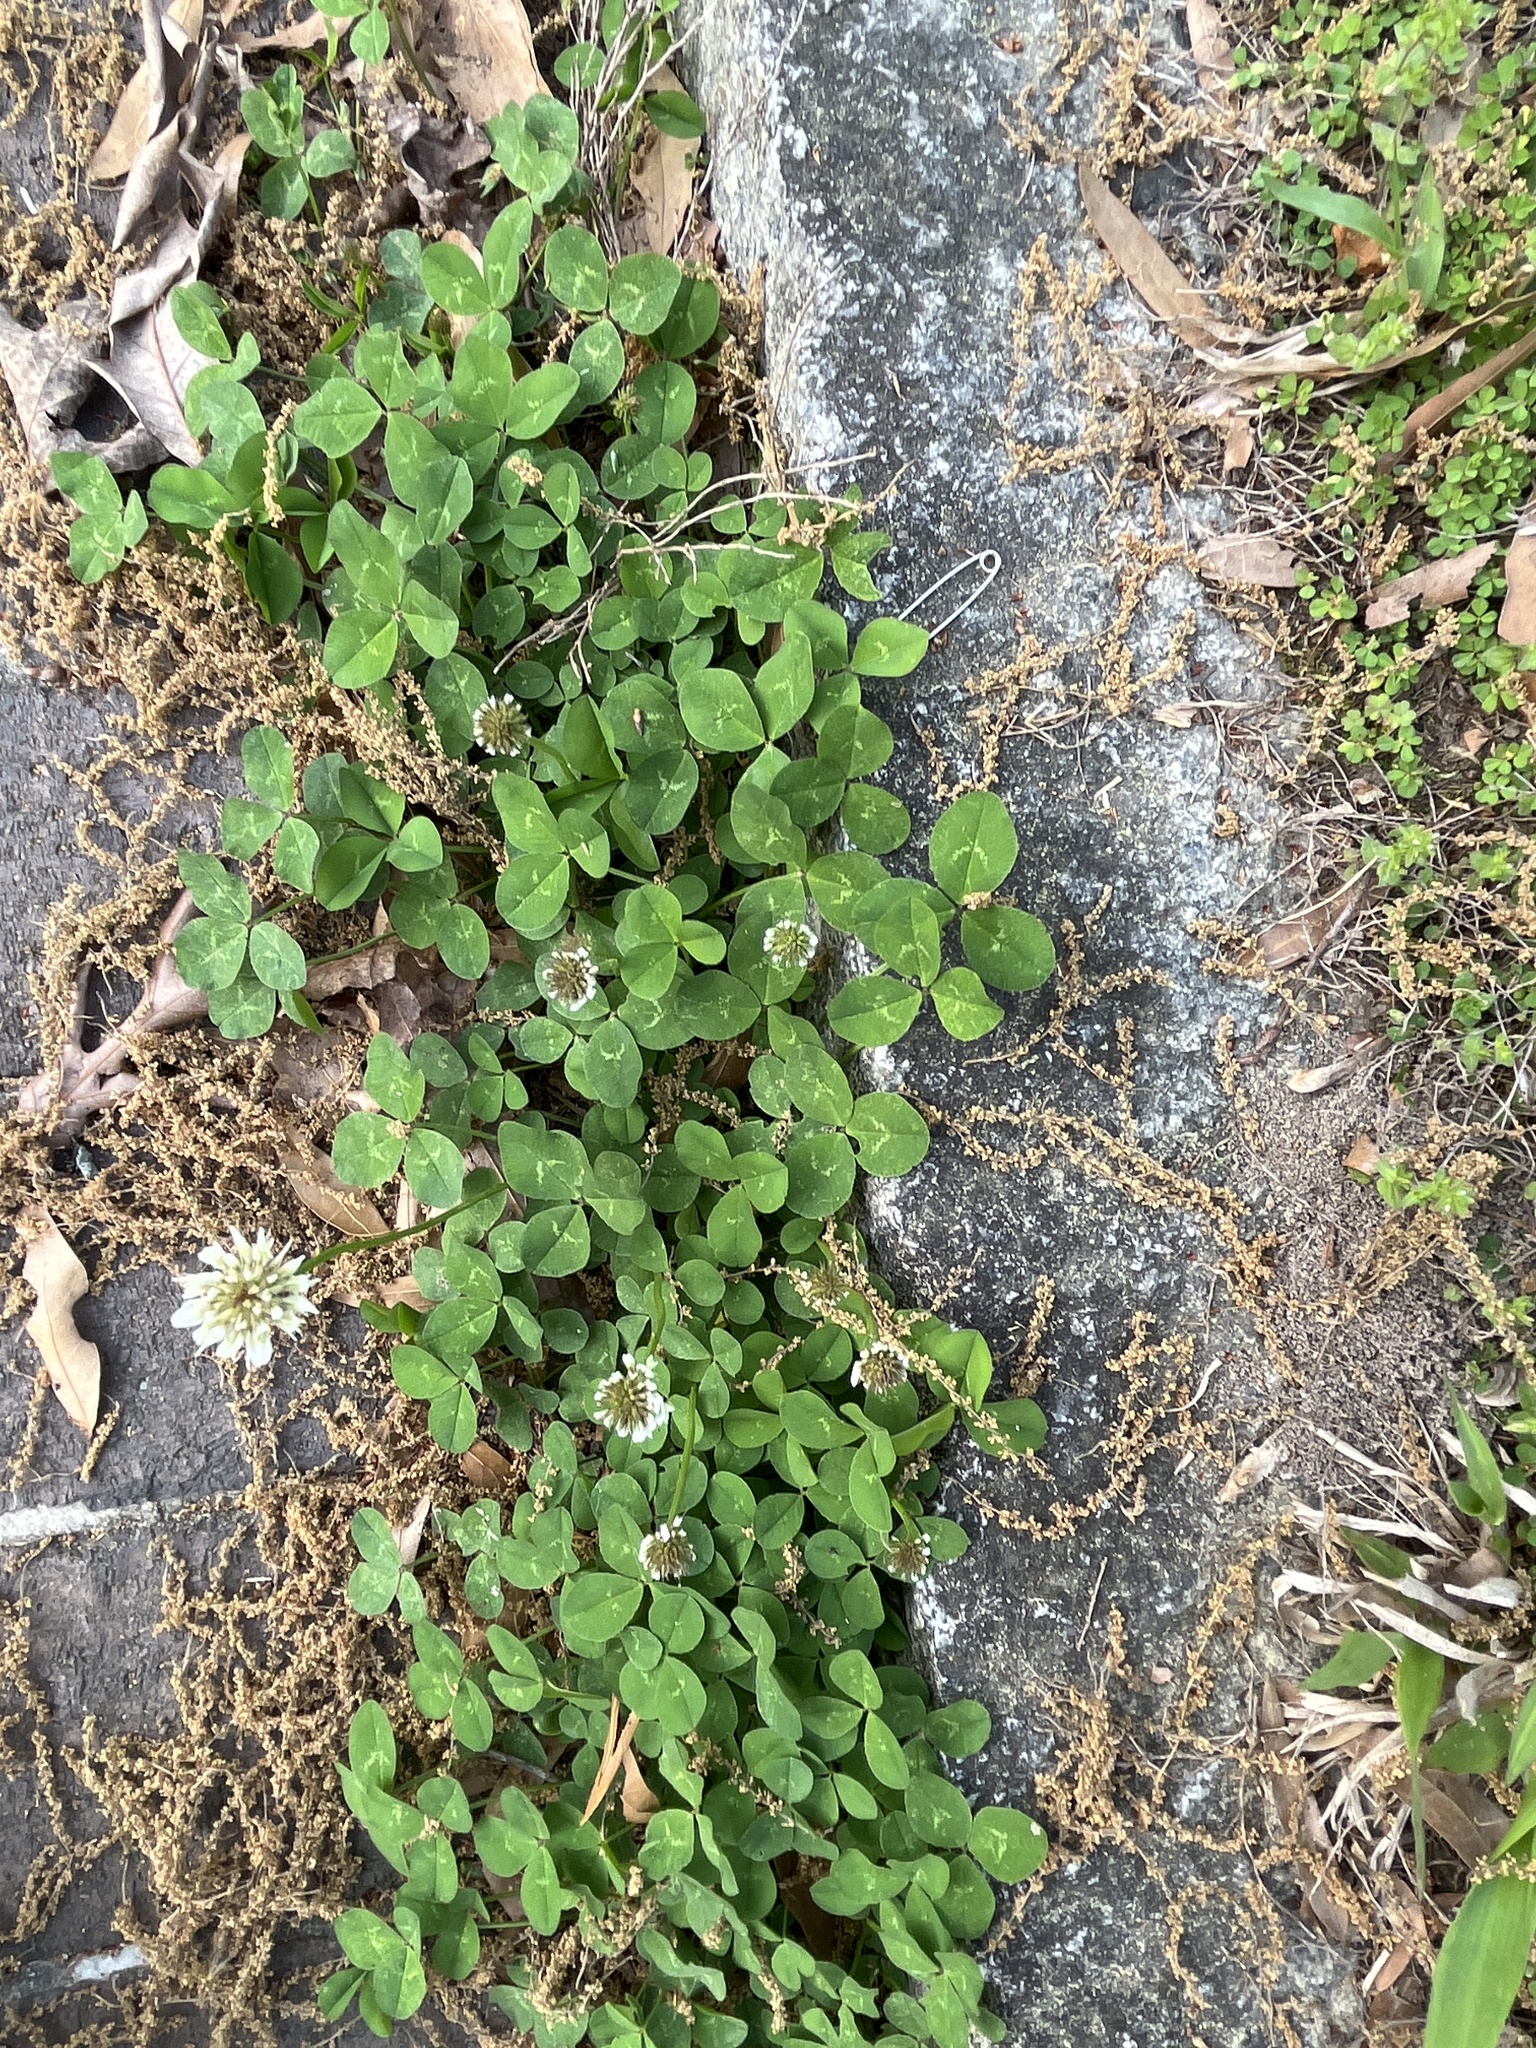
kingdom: Plantae
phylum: Tracheophyta
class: Magnoliopsida
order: Fabales
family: Fabaceae
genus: Trifolium
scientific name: Trifolium repens
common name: White clover
